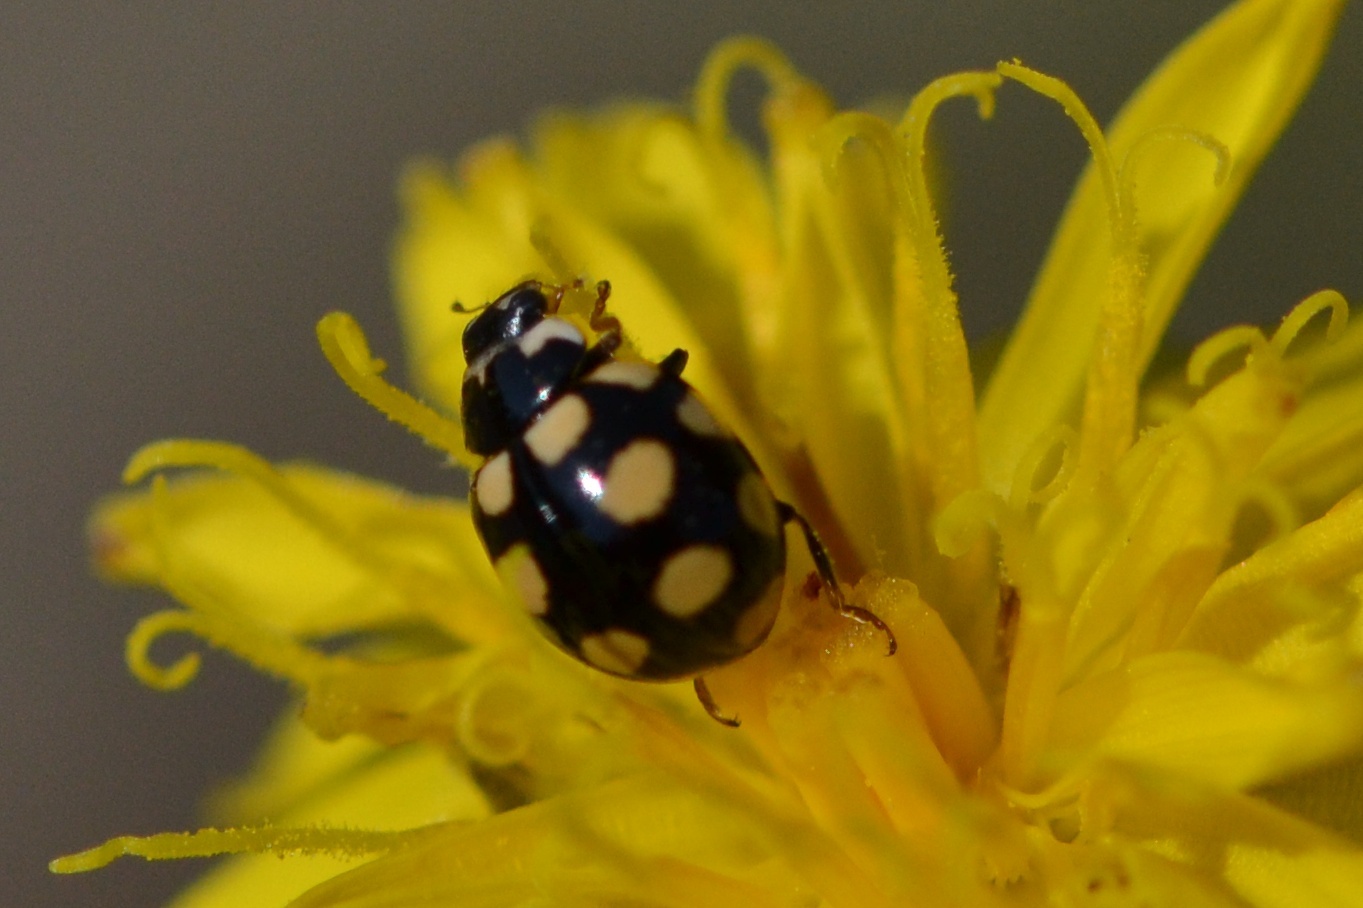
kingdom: Animalia
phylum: Arthropoda
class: Insecta
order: Coleoptera
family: Coccinellidae
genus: Coccinula
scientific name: Coccinula quatuordecimpustulata
